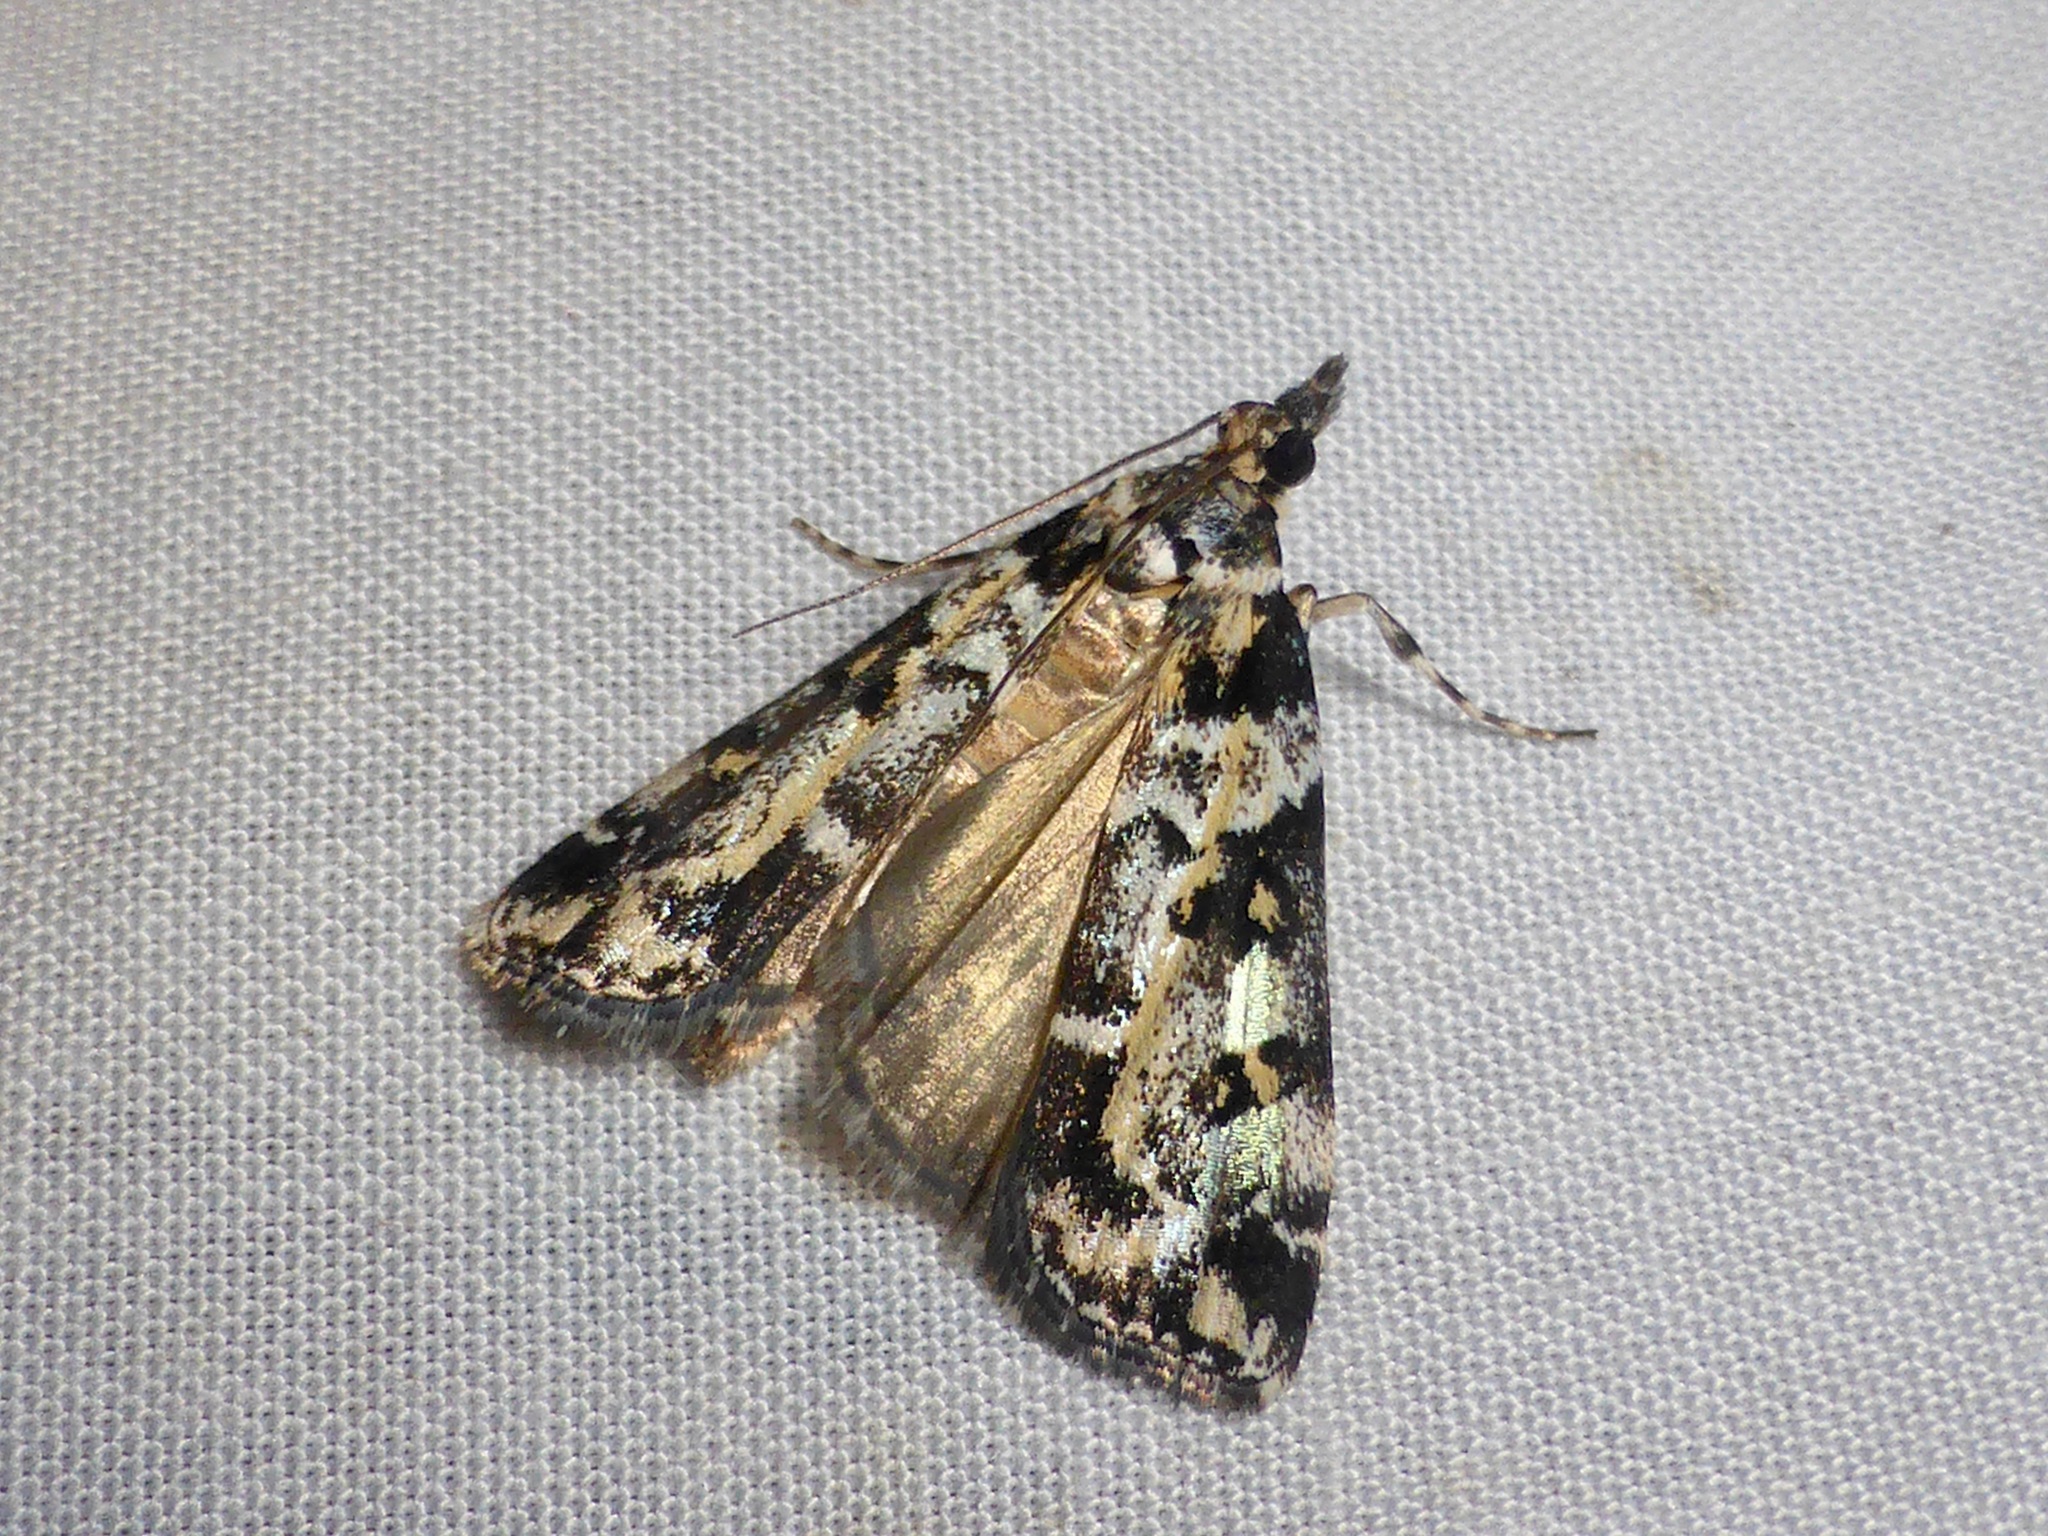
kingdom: Animalia
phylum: Arthropoda
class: Insecta
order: Lepidoptera
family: Crambidae
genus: Eudonia
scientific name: Eudonia diphtheralis
